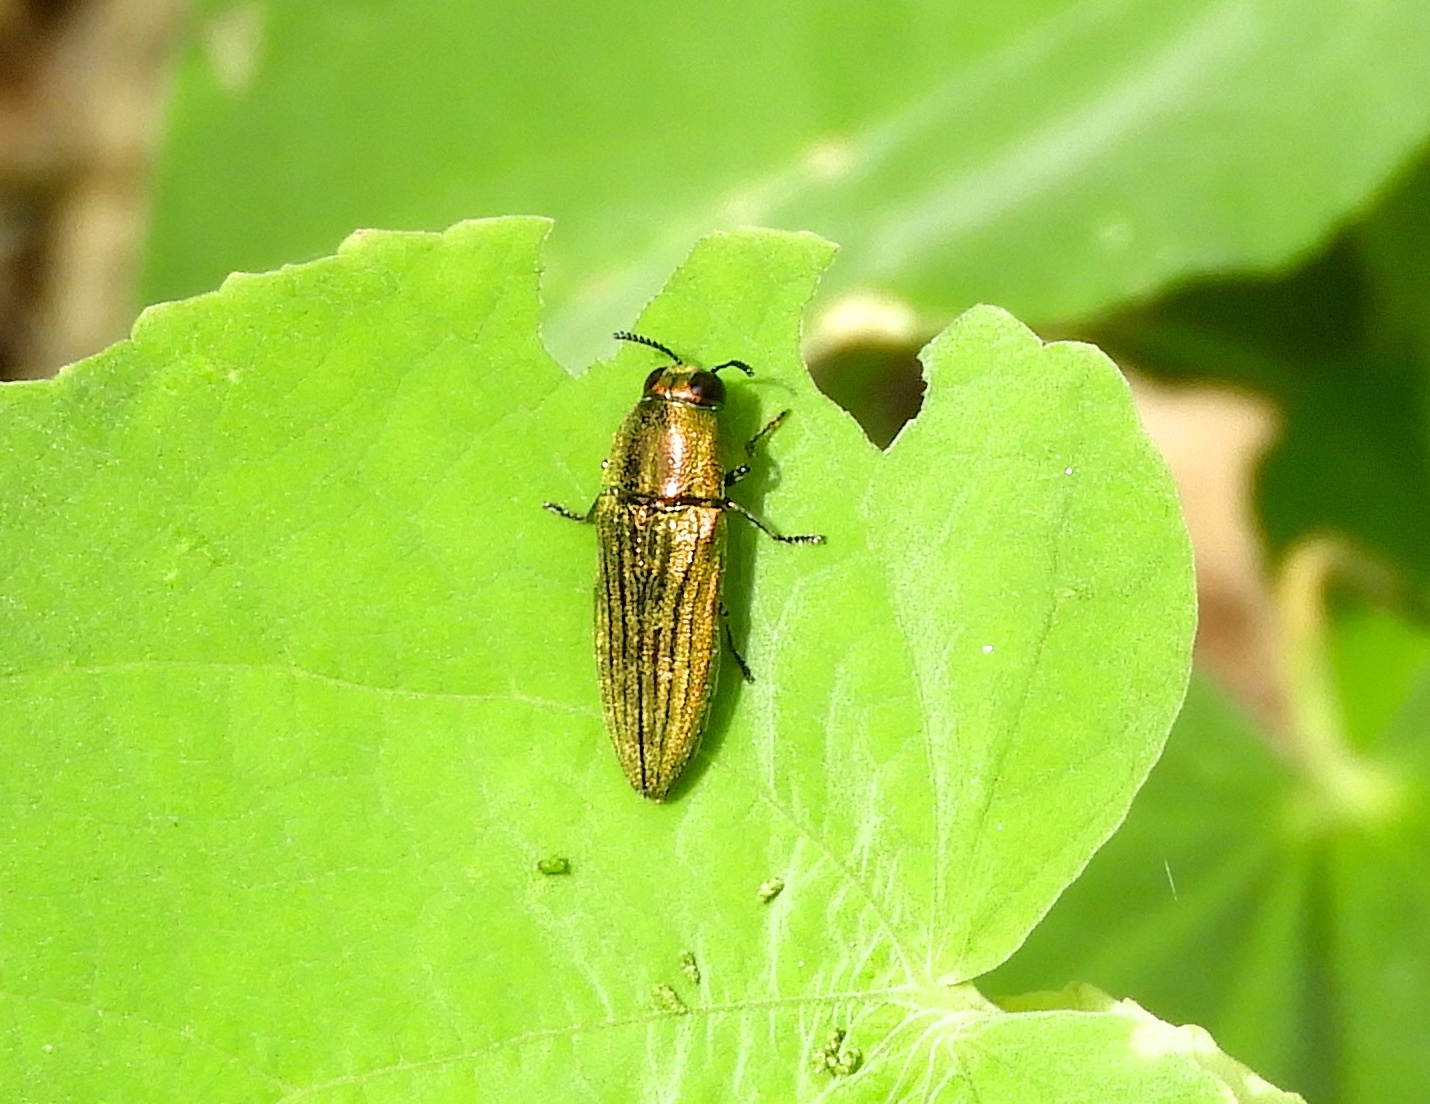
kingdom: Animalia
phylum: Arthropoda
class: Insecta
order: Coleoptera
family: Buprestidae
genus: Agaeocera
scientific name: Agaeocera scintillans
